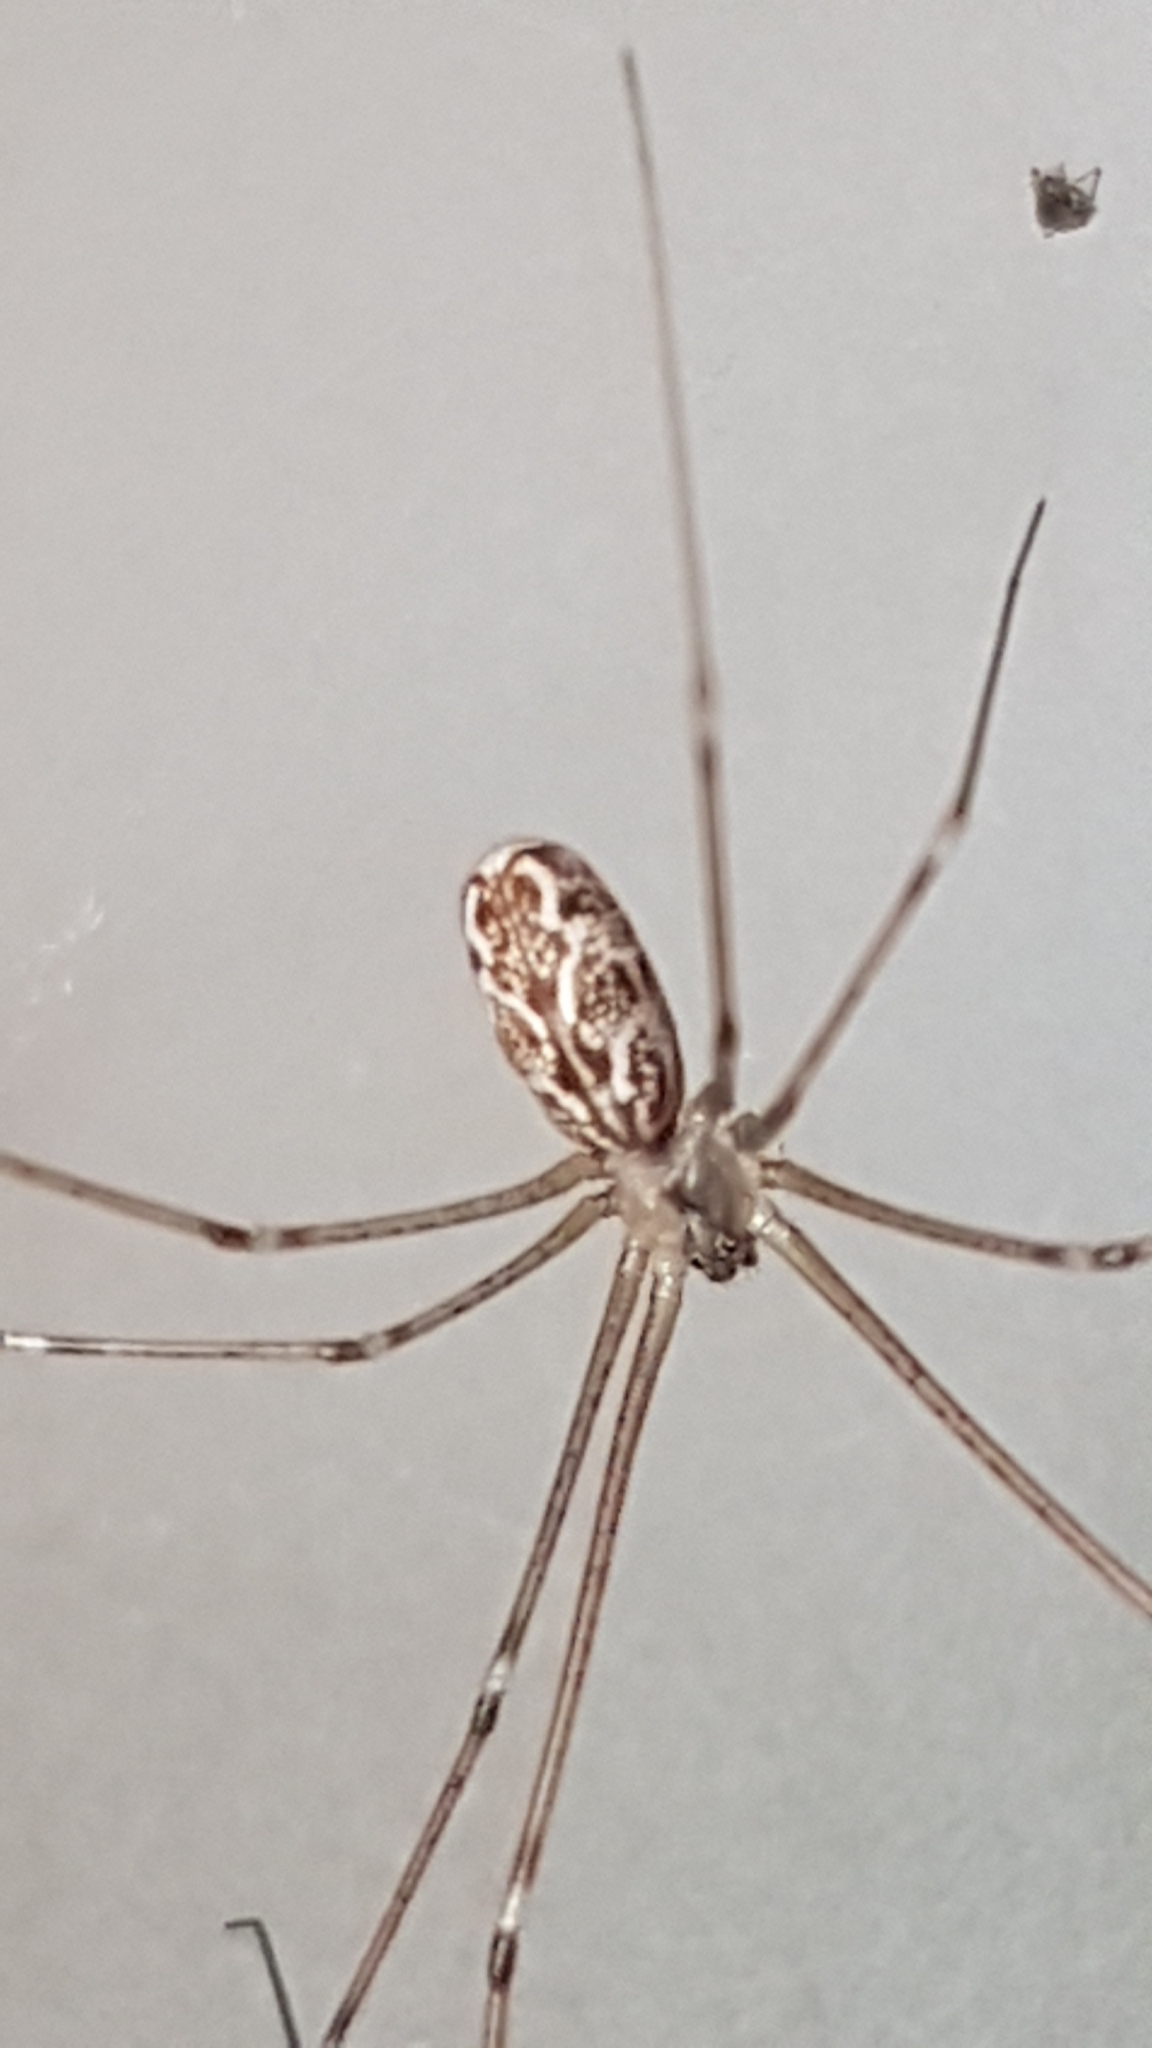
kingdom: Animalia
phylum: Arthropoda
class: Arachnida
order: Araneae
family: Pholcidae
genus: Holocnemus
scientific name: Holocnemus pluchei
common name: Marbled cellar spider
